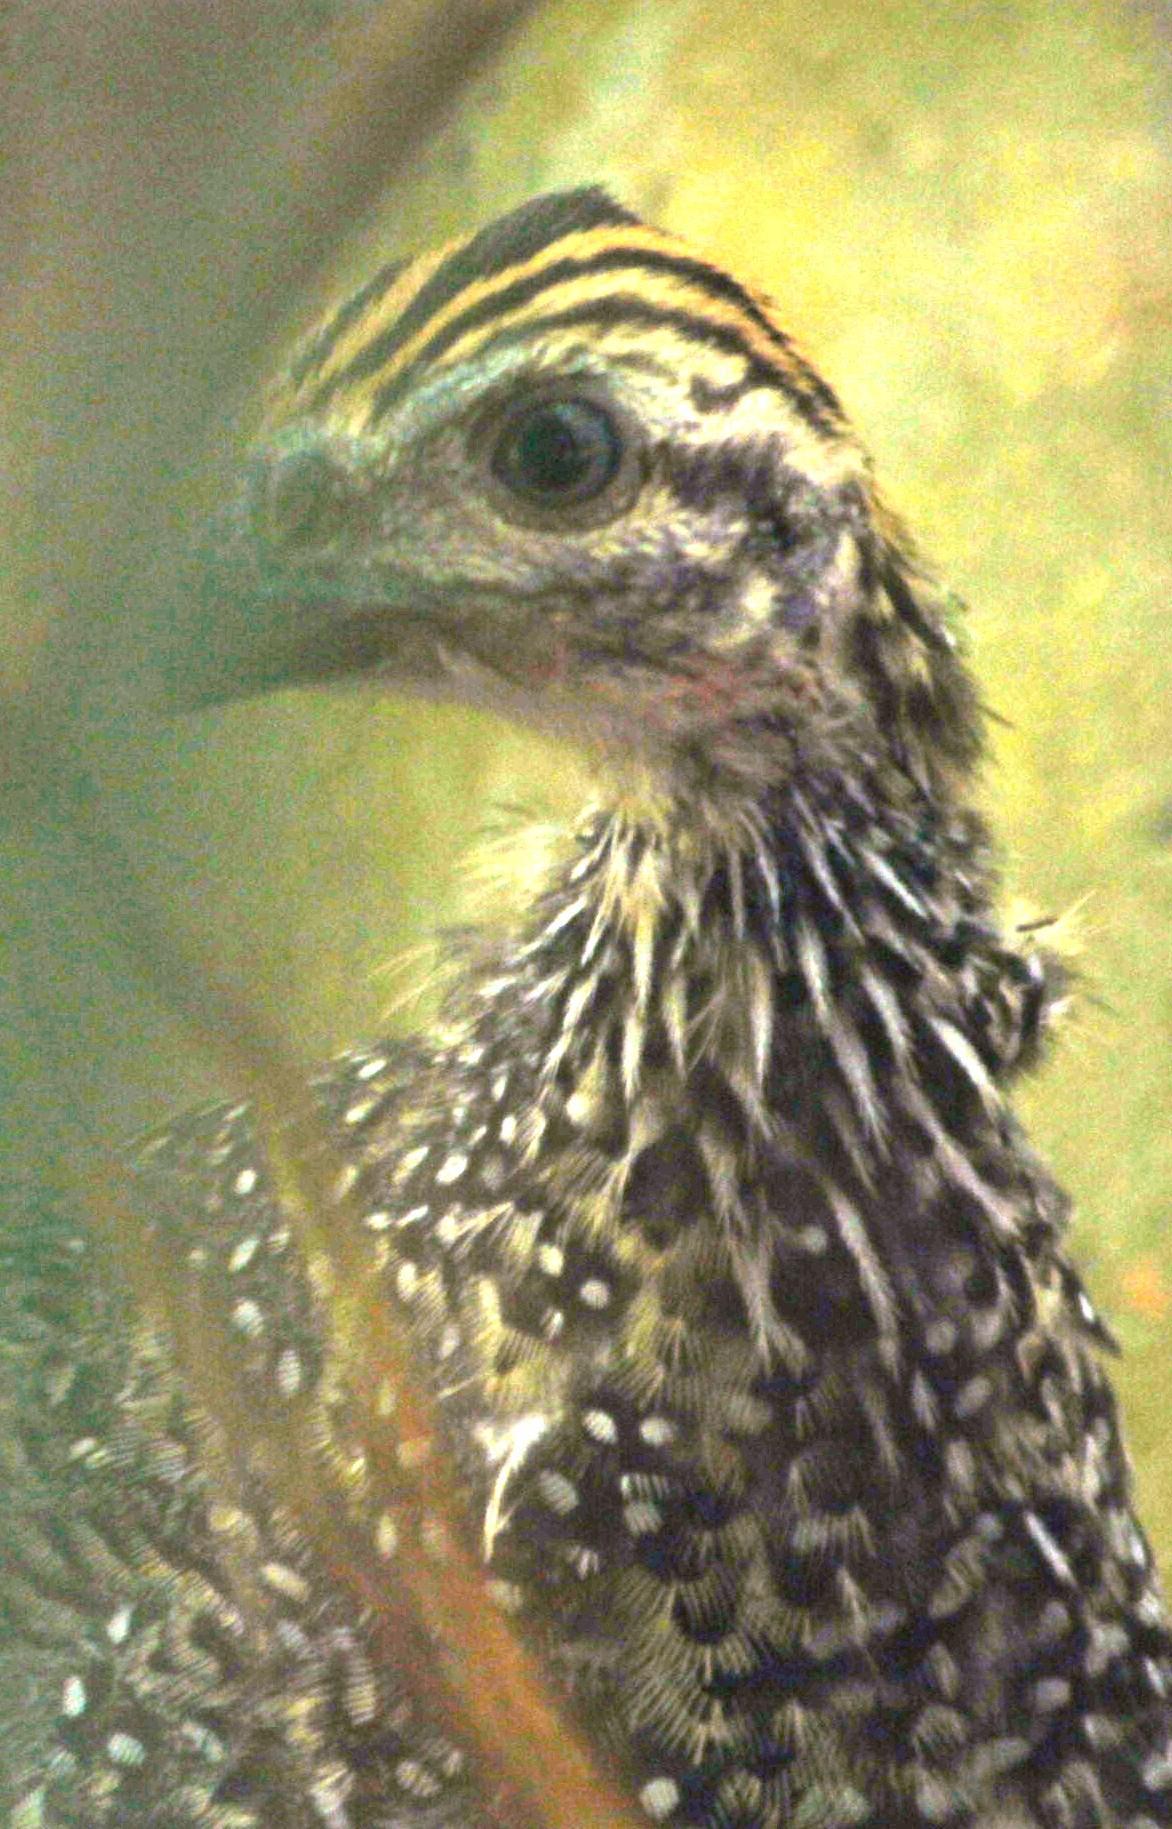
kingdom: Animalia
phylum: Chordata
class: Aves
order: Galliformes
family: Numididae
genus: Numida
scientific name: Numida meleagris
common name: Helmeted guineafowl
